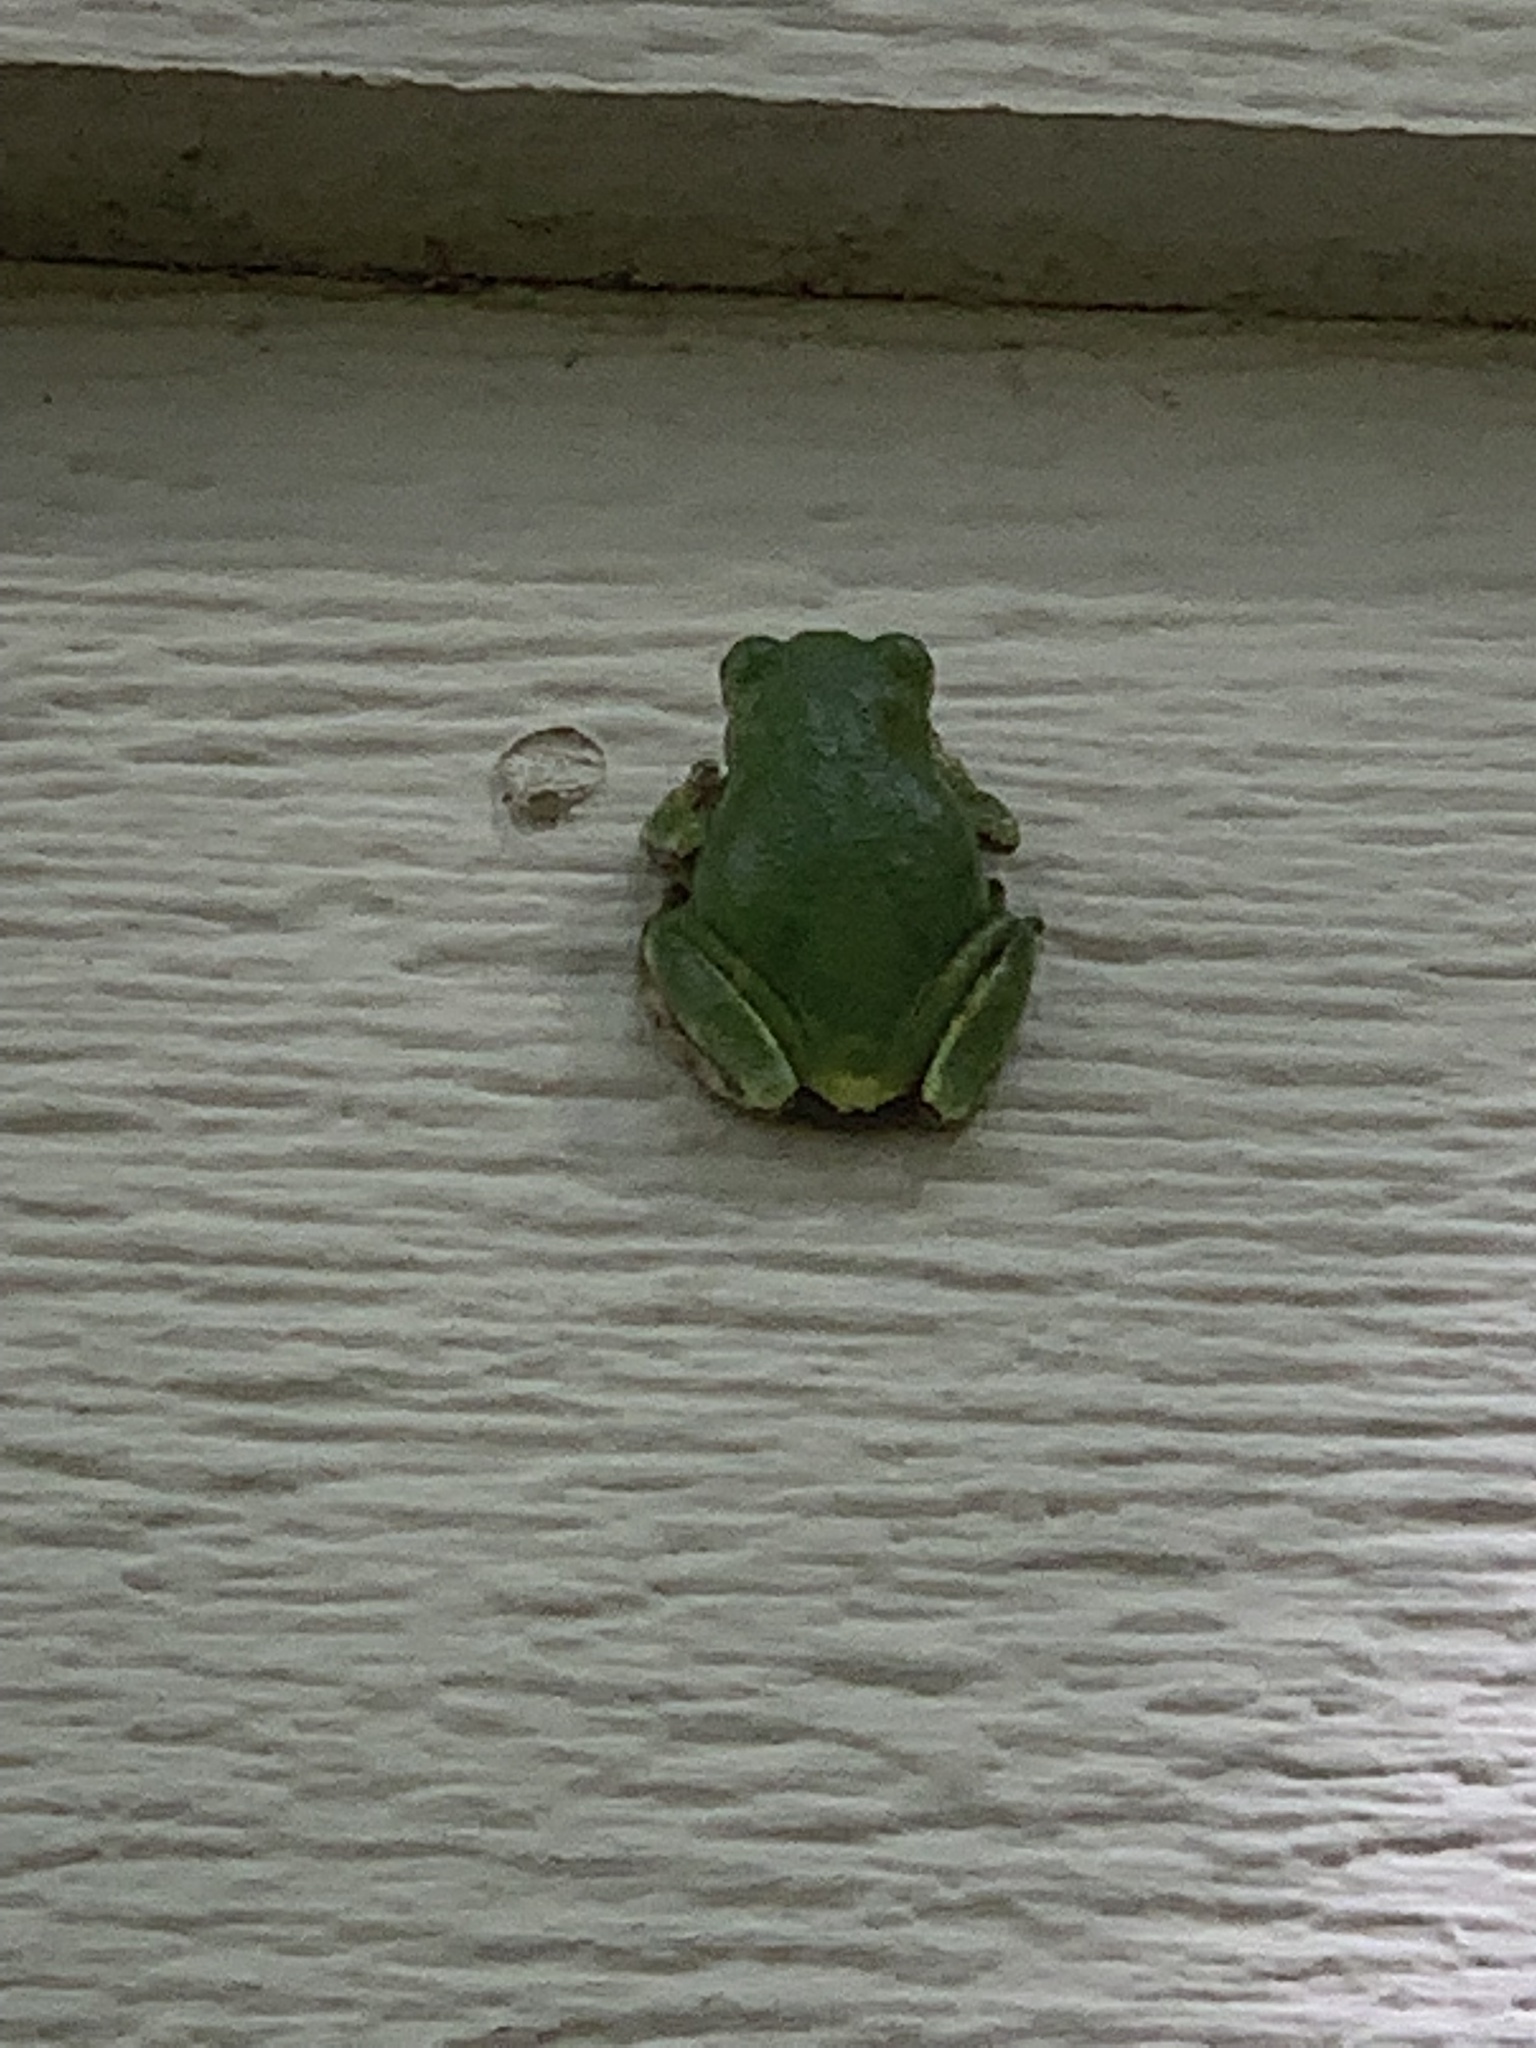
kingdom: Animalia
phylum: Chordata
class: Amphibia
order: Anura
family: Hylidae
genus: Hyla
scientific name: Hyla
